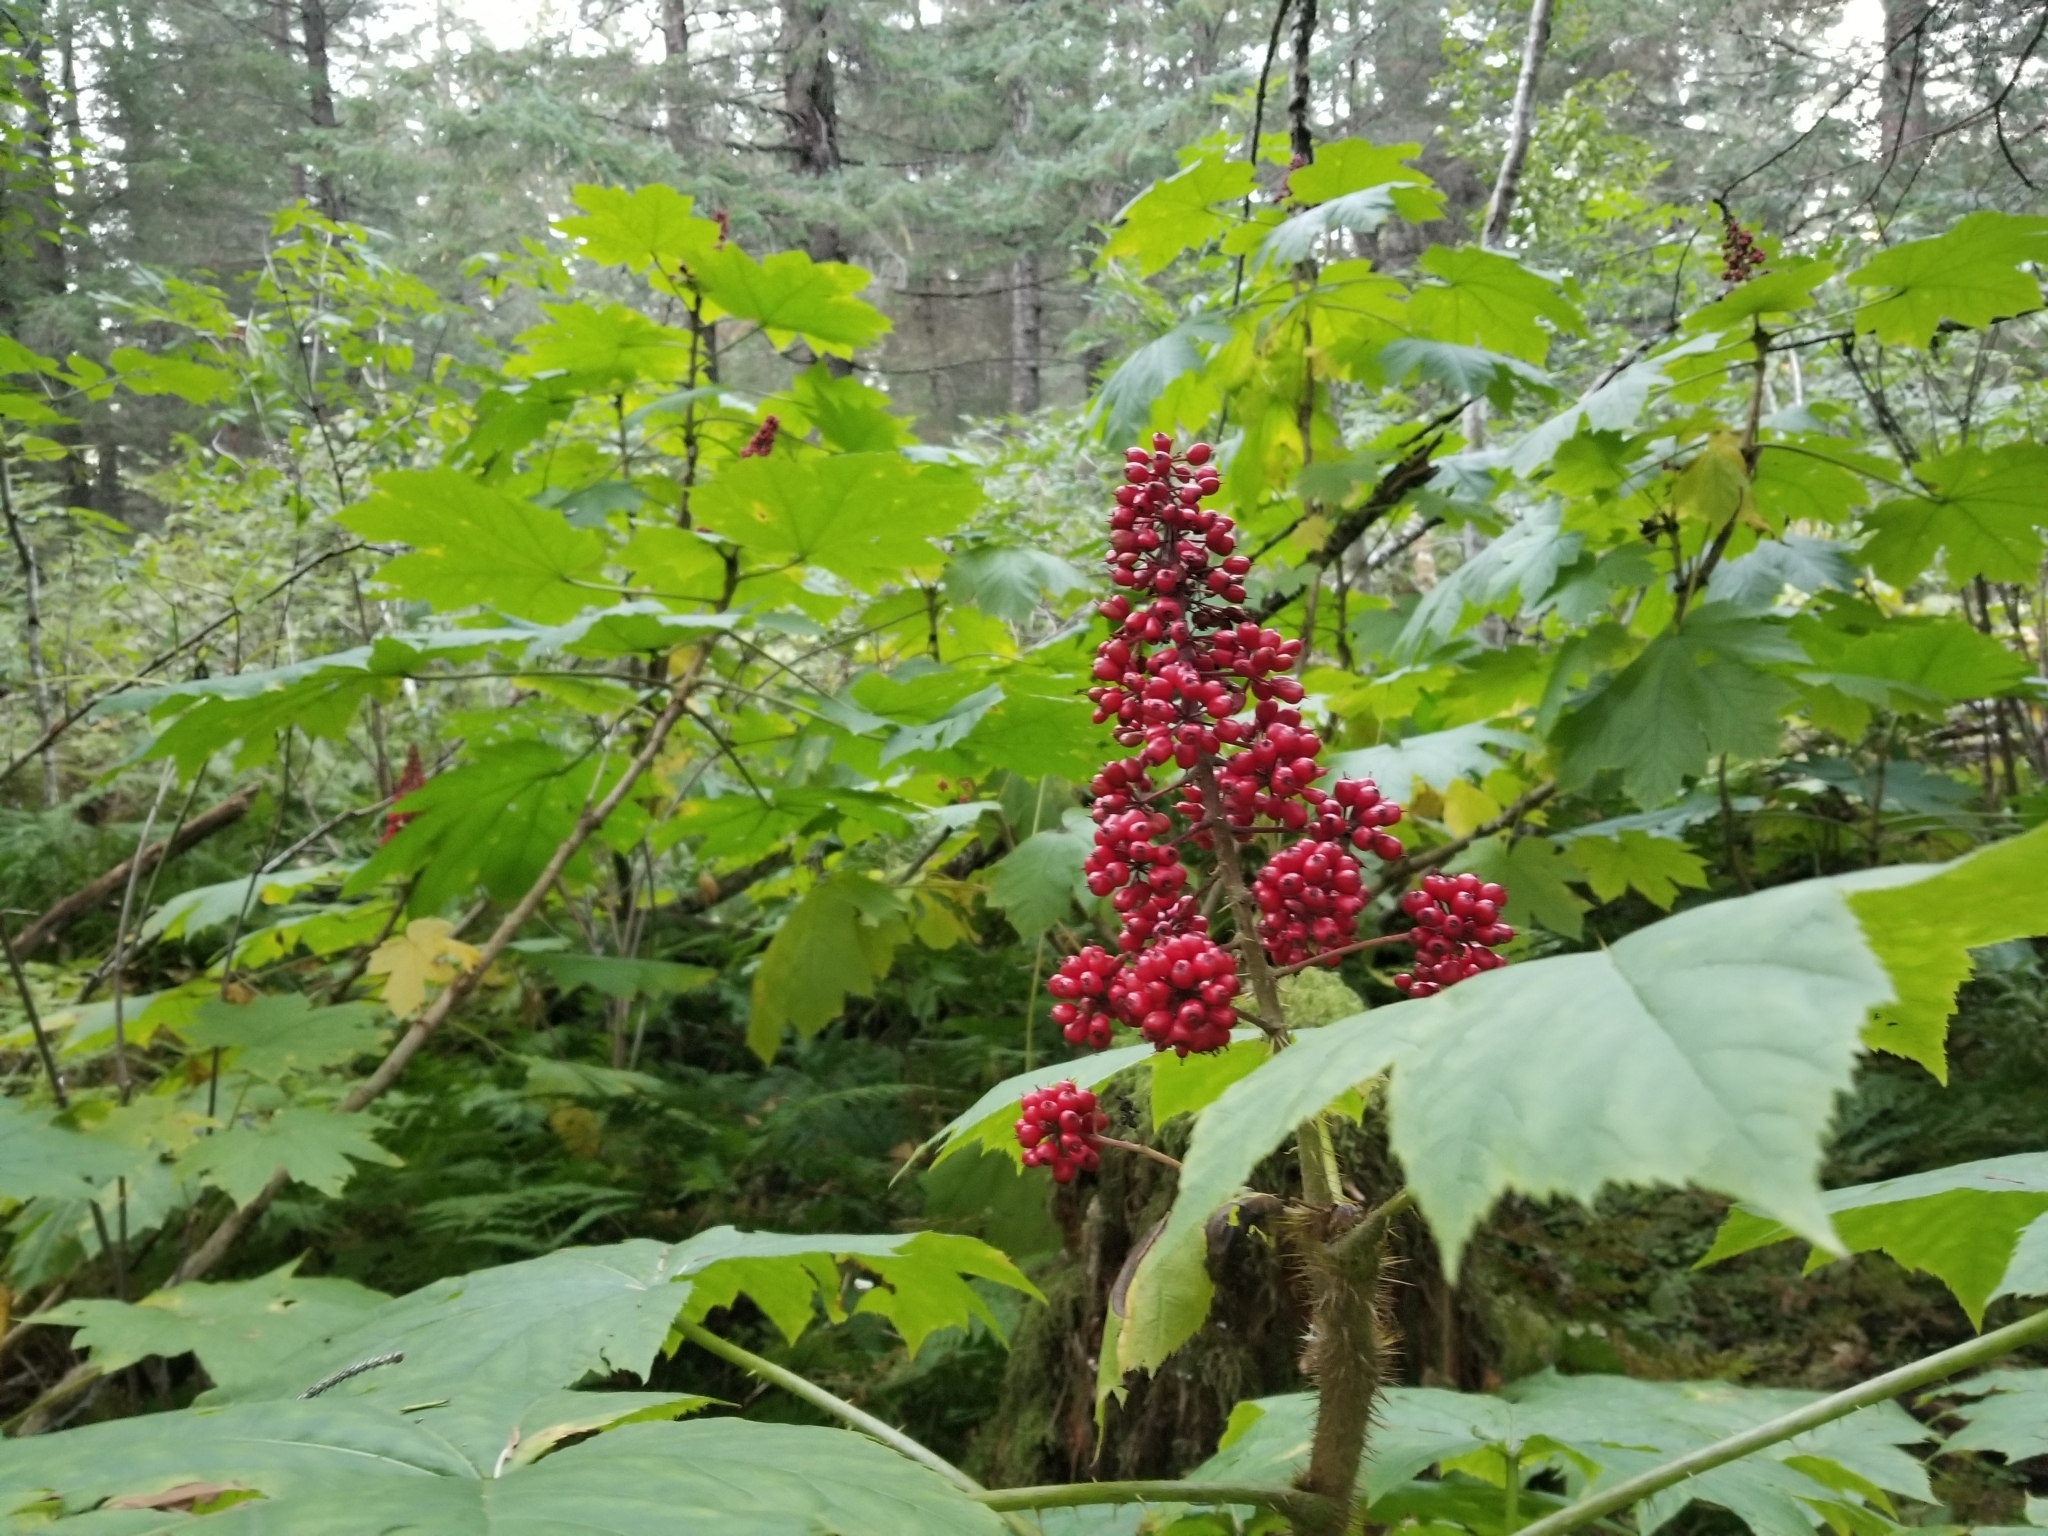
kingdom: Plantae
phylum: Tracheophyta
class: Magnoliopsida
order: Apiales
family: Araliaceae
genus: Oplopanax
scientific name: Oplopanax horridus
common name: Devil's walking-stick
